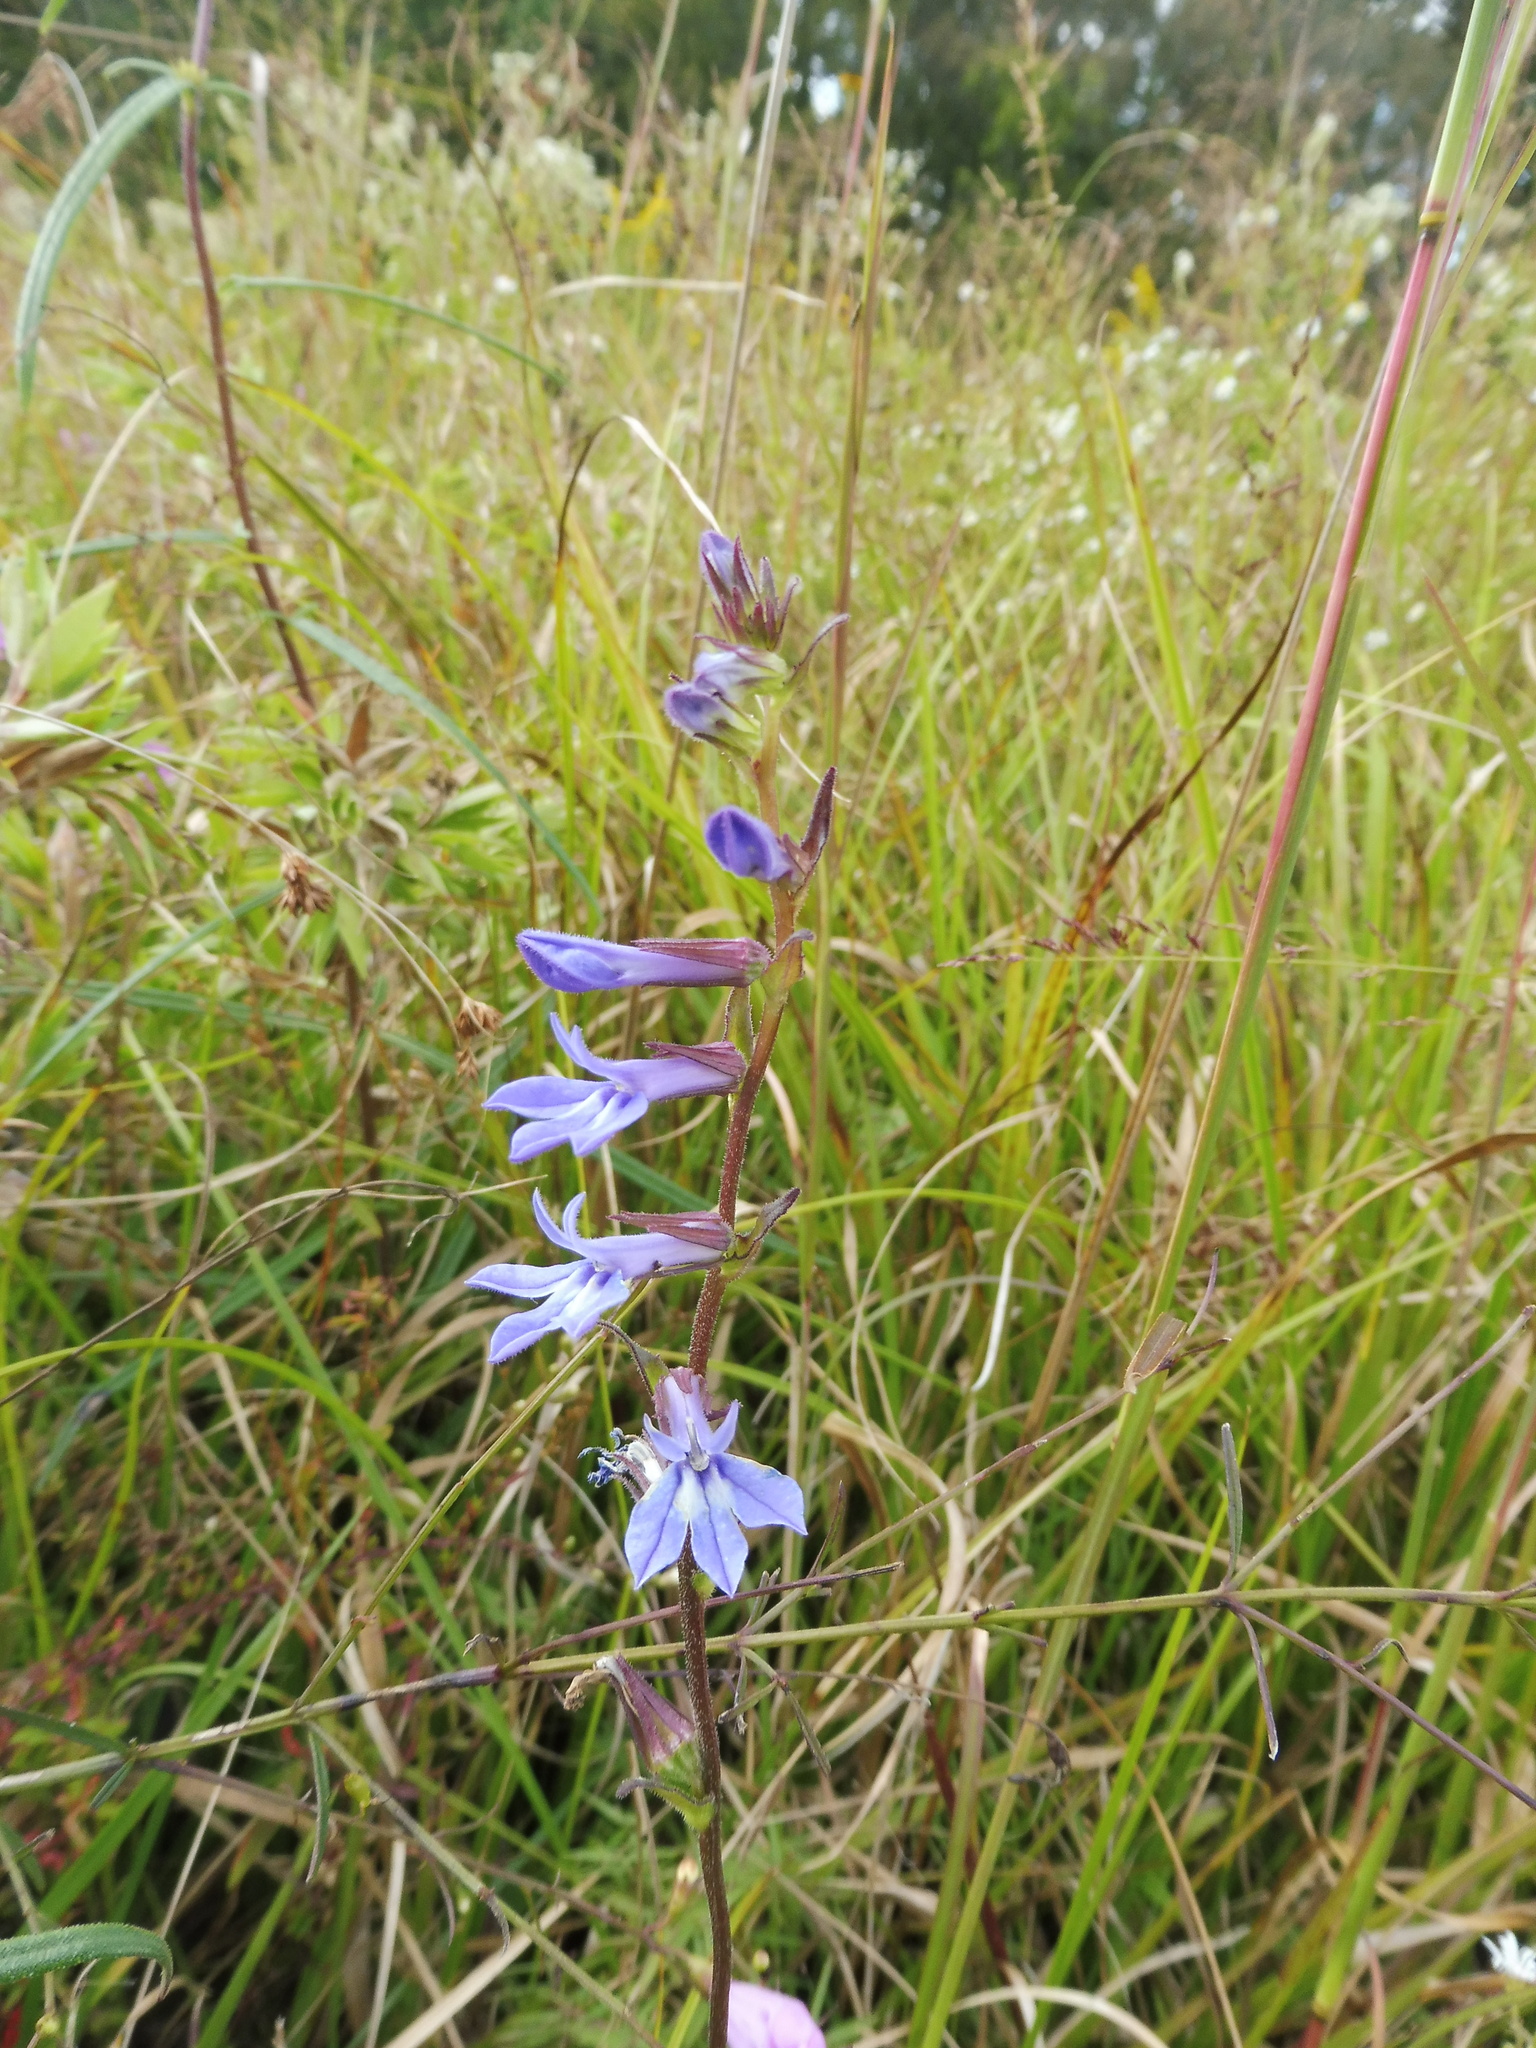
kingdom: Plantae
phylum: Tracheophyta
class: Magnoliopsida
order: Asterales
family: Campanulaceae
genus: Lobelia
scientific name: Lobelia puberula
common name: Purple dewdrop
